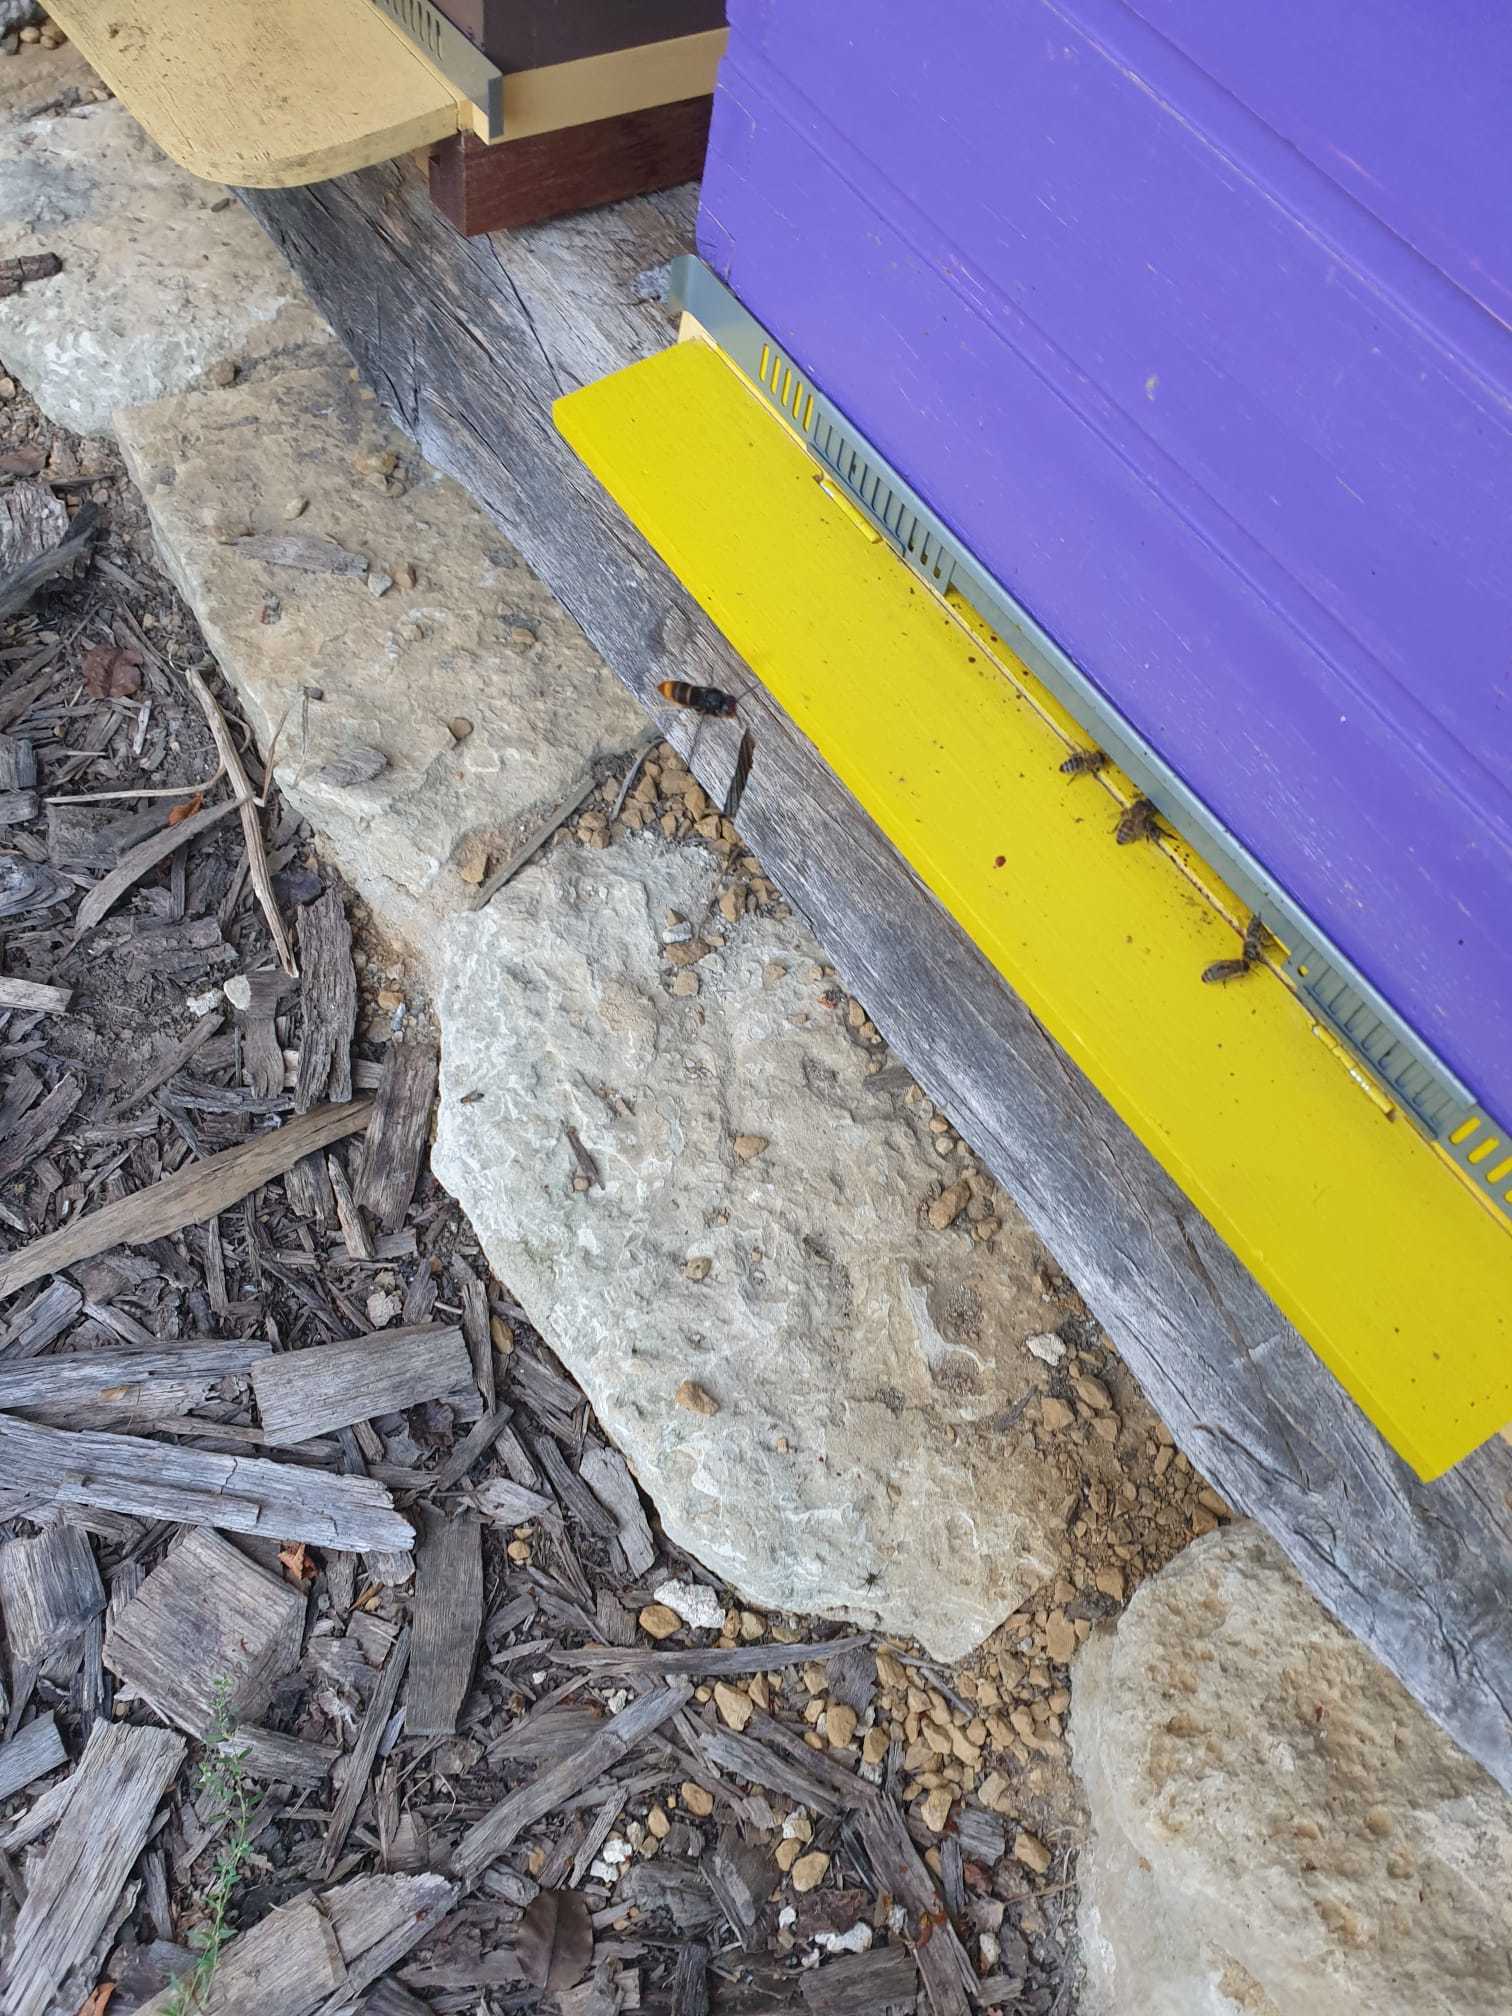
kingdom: Animalia
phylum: Arthropoda
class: Insecta
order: Hymenoptera
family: Vespidae
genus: Vespa
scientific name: Vespa velutina
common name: Asian hornet
